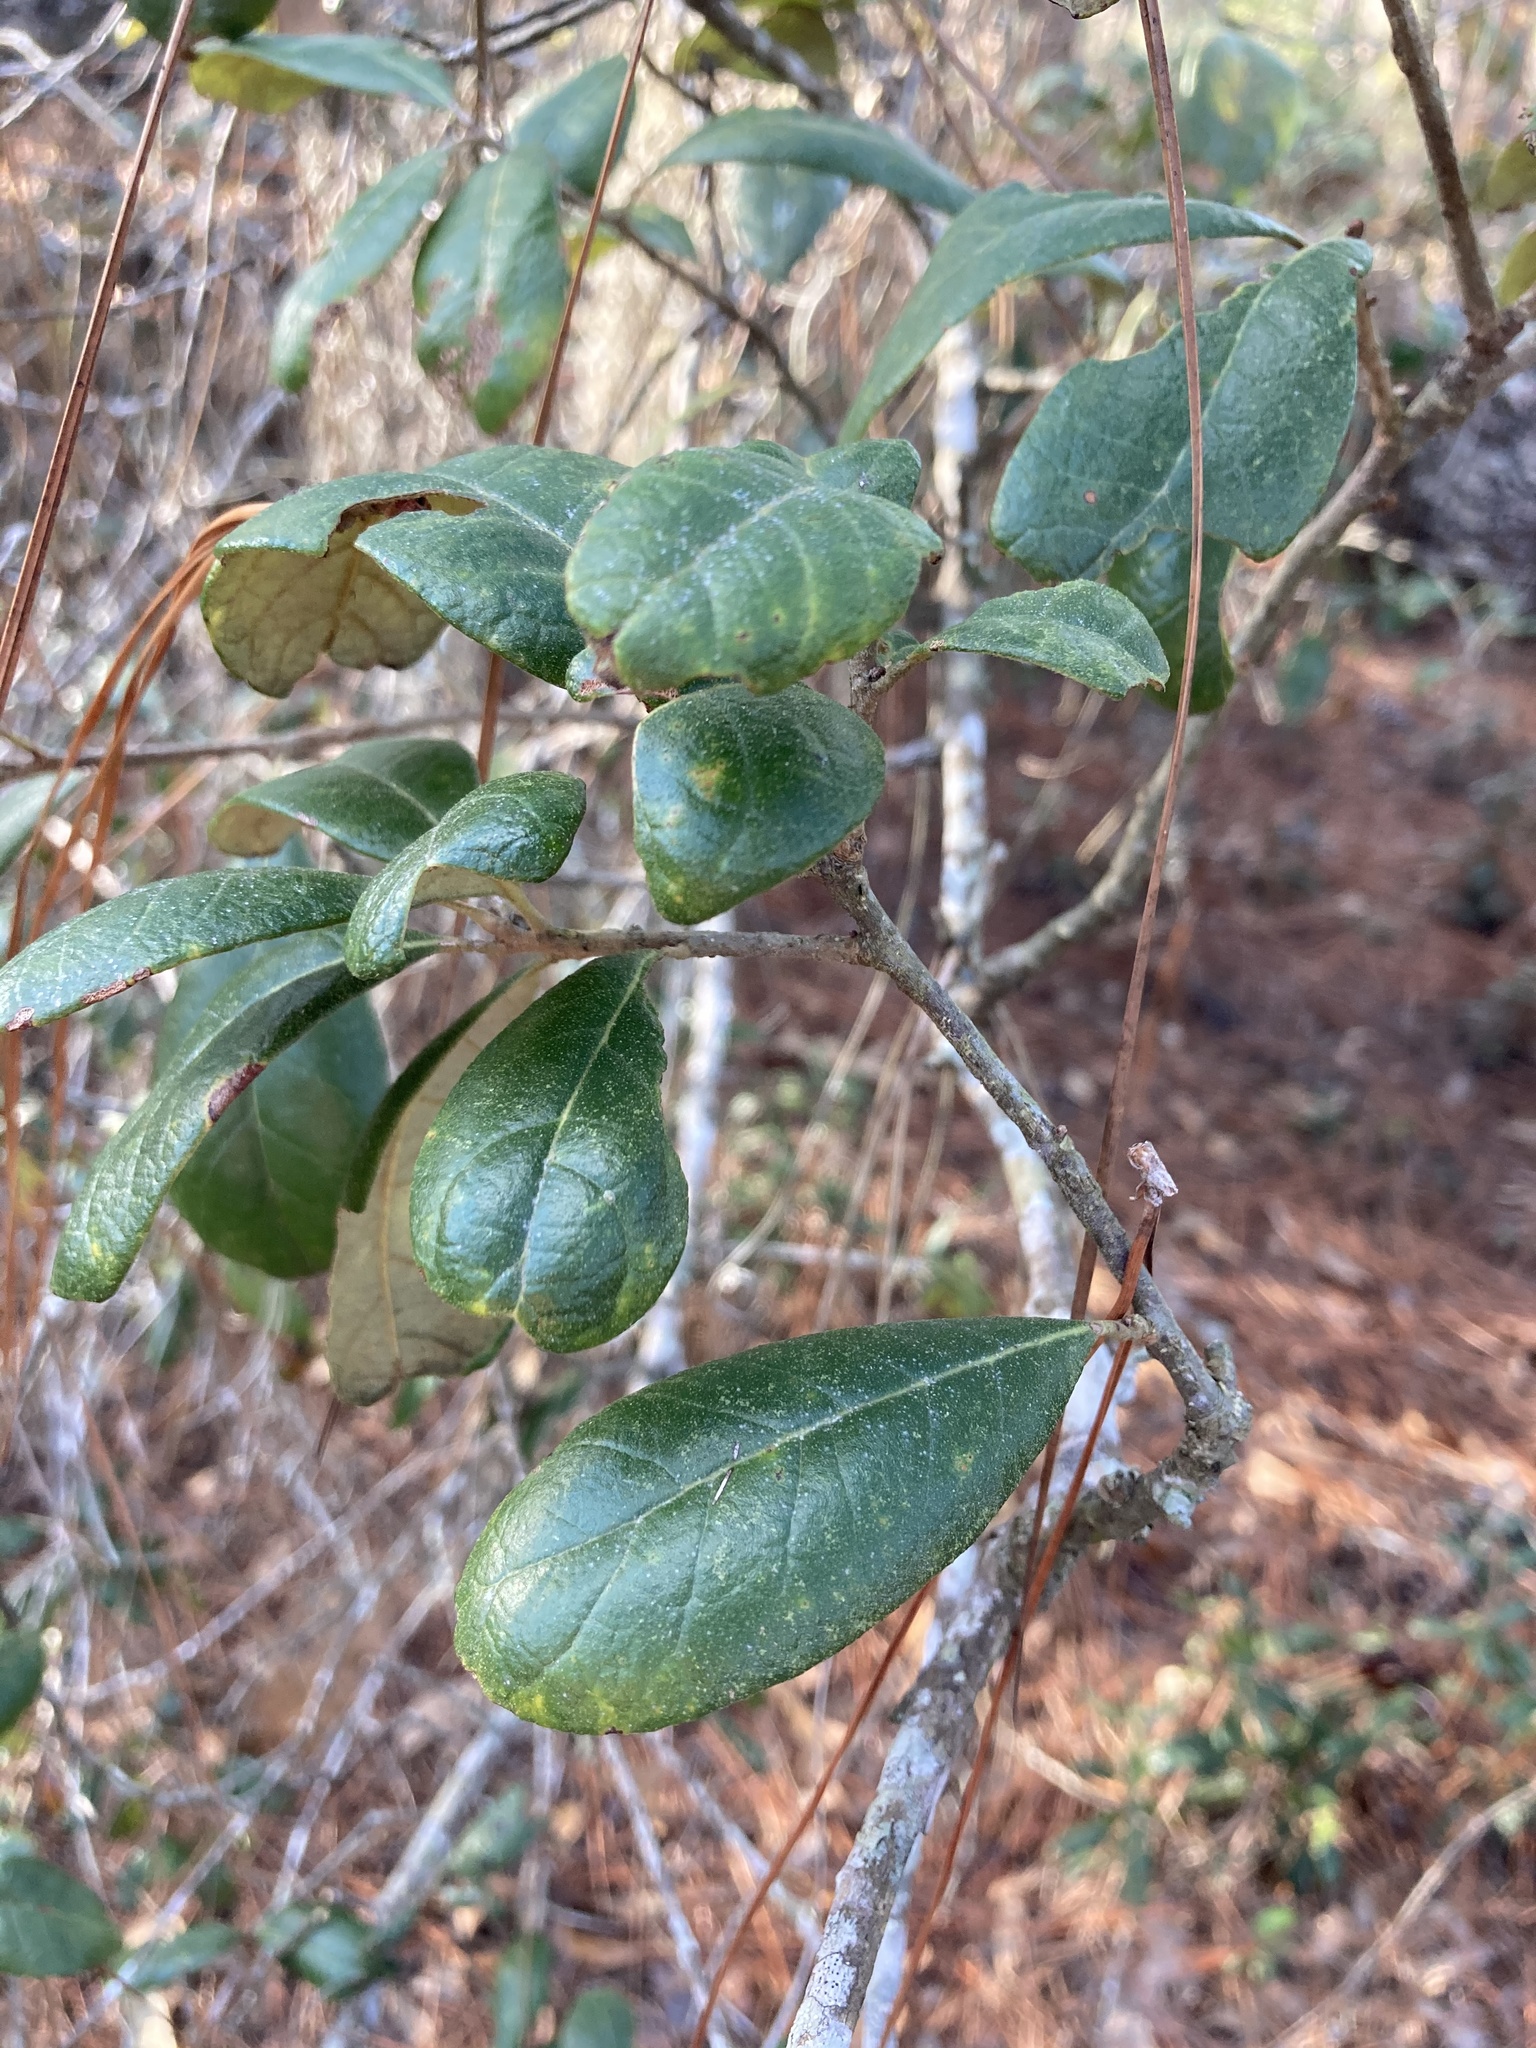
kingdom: Plantae
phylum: Tracheophyta
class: Magnoliopsida
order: Fagales
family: Fagaceae
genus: Quercus
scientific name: Quercus geminata
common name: Sand live oak
